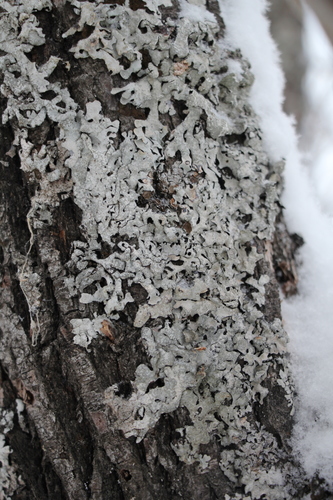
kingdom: Fungi
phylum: Ascomycota
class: Lecanoromycetes
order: Lecanorales
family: Parmeliaceae
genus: Parmelia
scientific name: Parmelia
